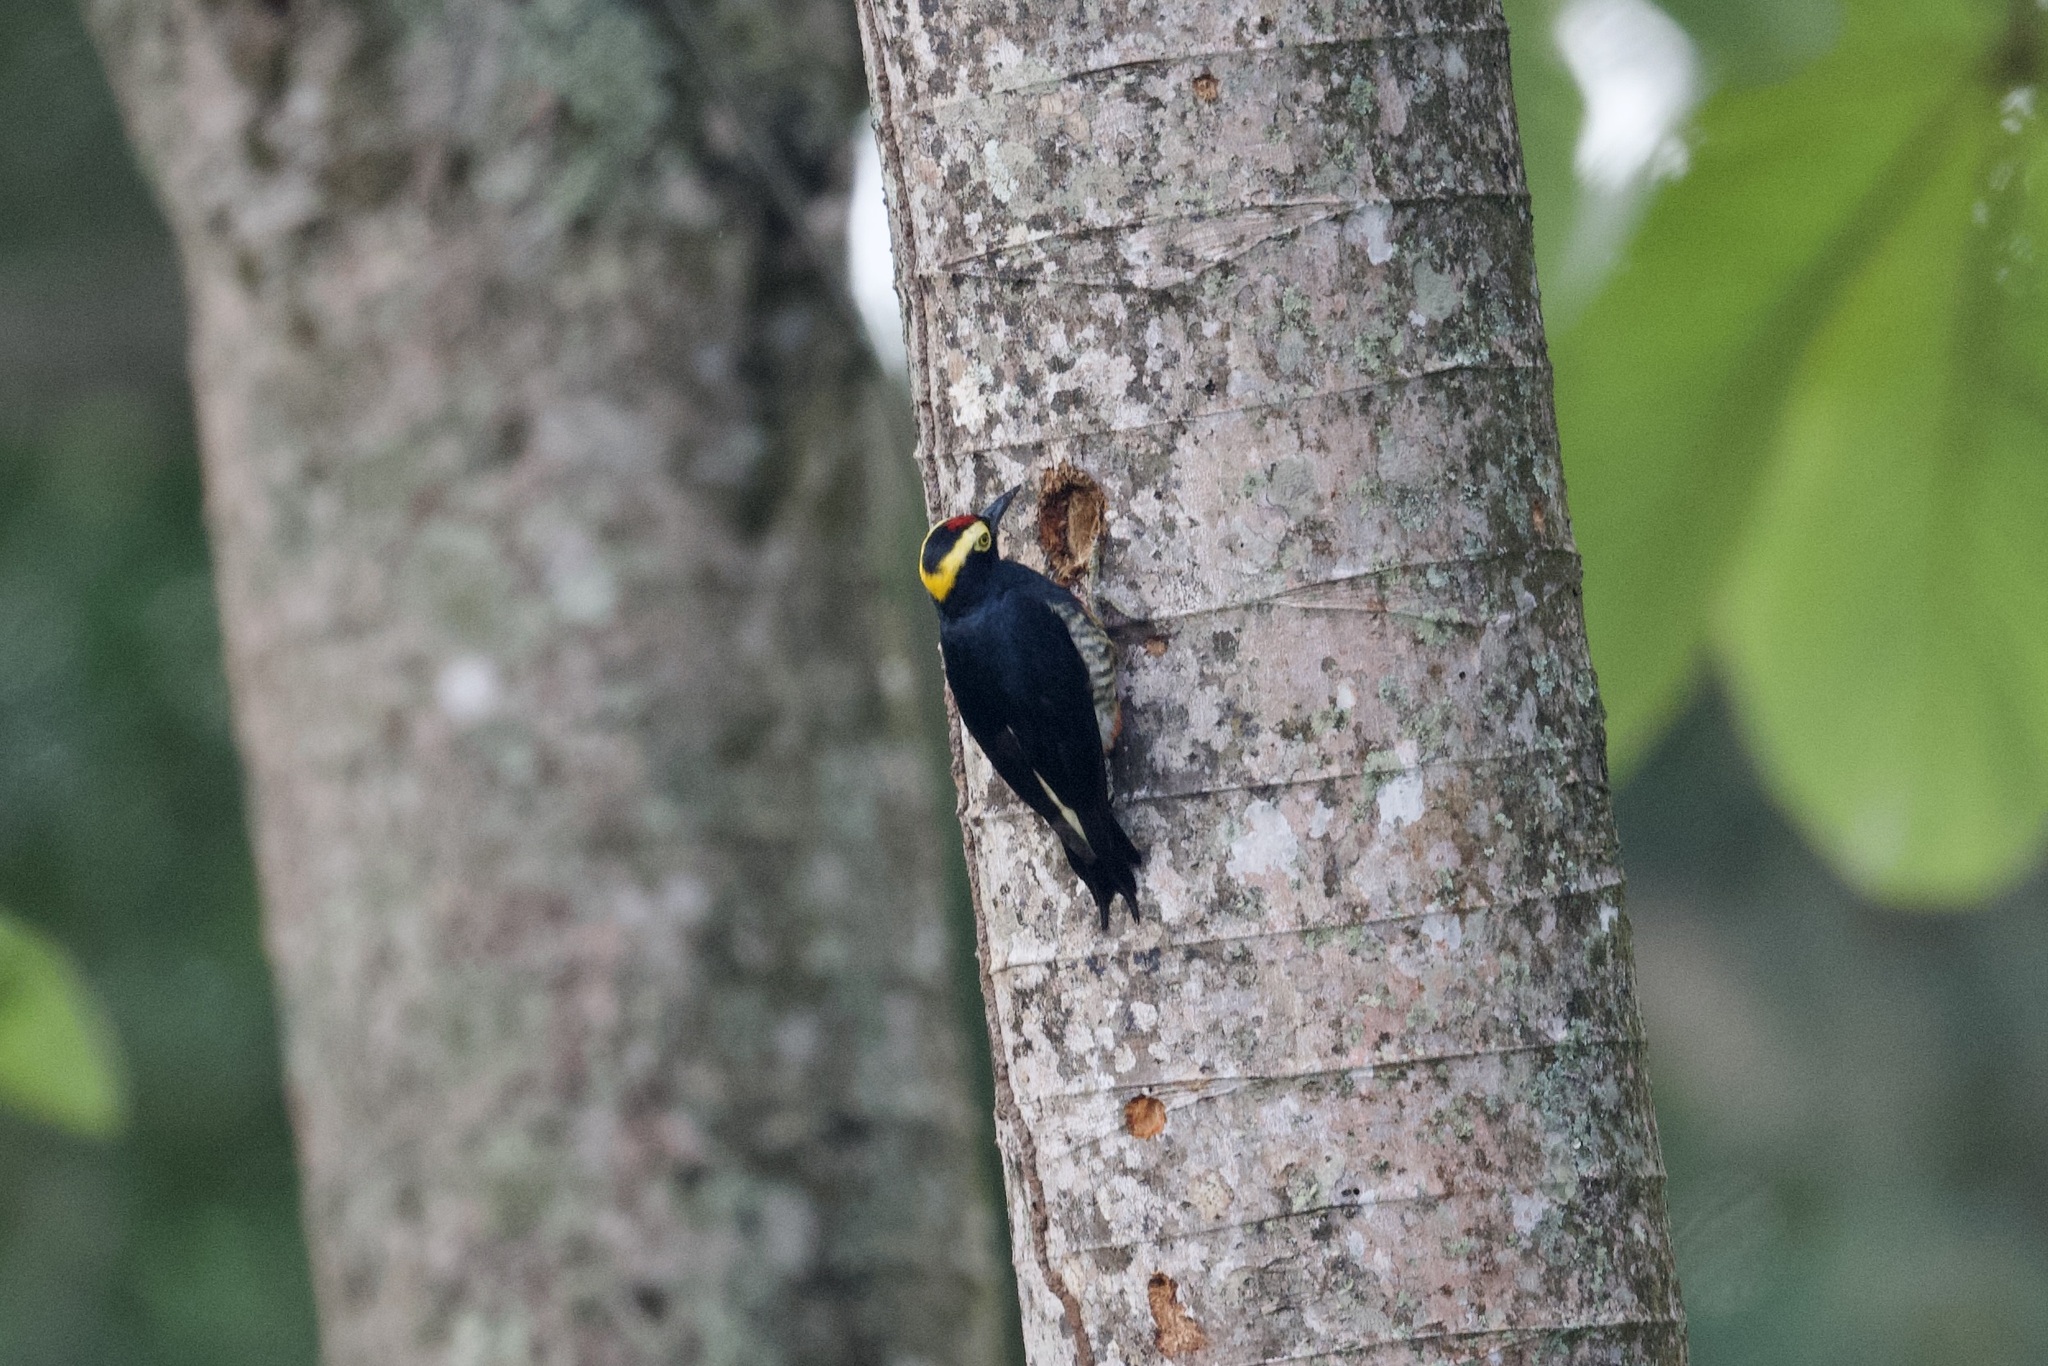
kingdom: Animalia
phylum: Chordata
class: Aves
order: Piciformes
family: Picidae
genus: Melanerpes
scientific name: Melanerpes cruentatus
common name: Yellow-tufted woodpecker
